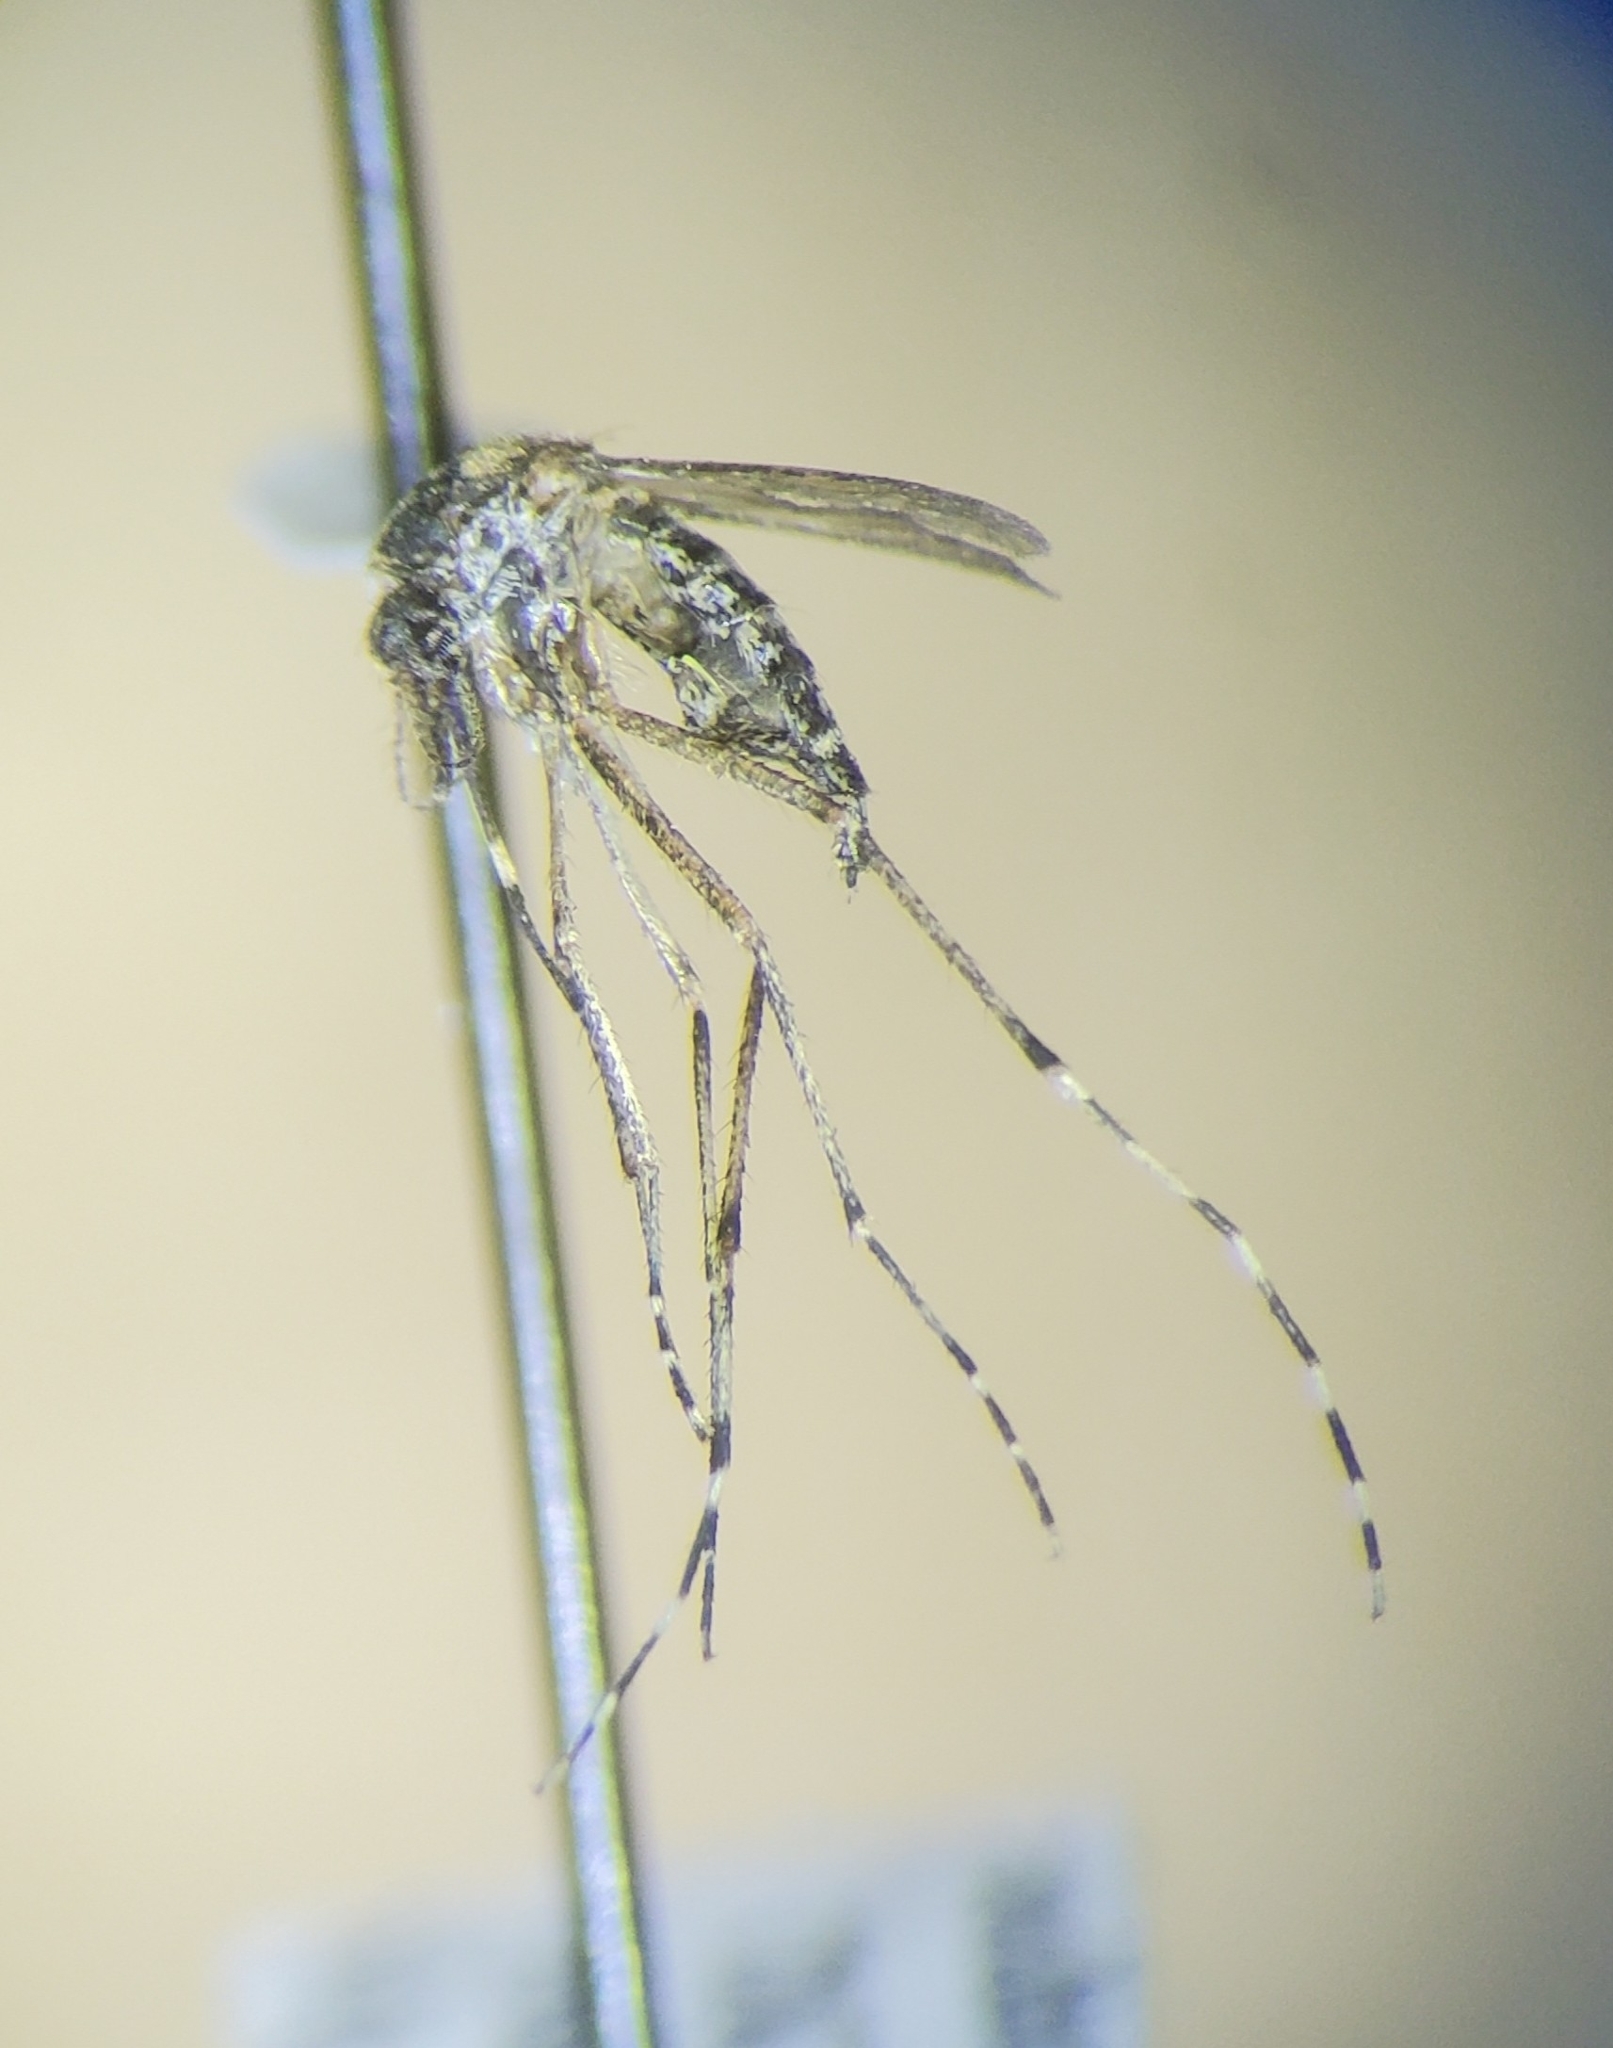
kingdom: Animalia
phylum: Arthropoda
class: Insecta
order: Diptera
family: Culicidae
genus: Aedes
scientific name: Aedes taeniorhynchus
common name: Black salt marsh mosquito
